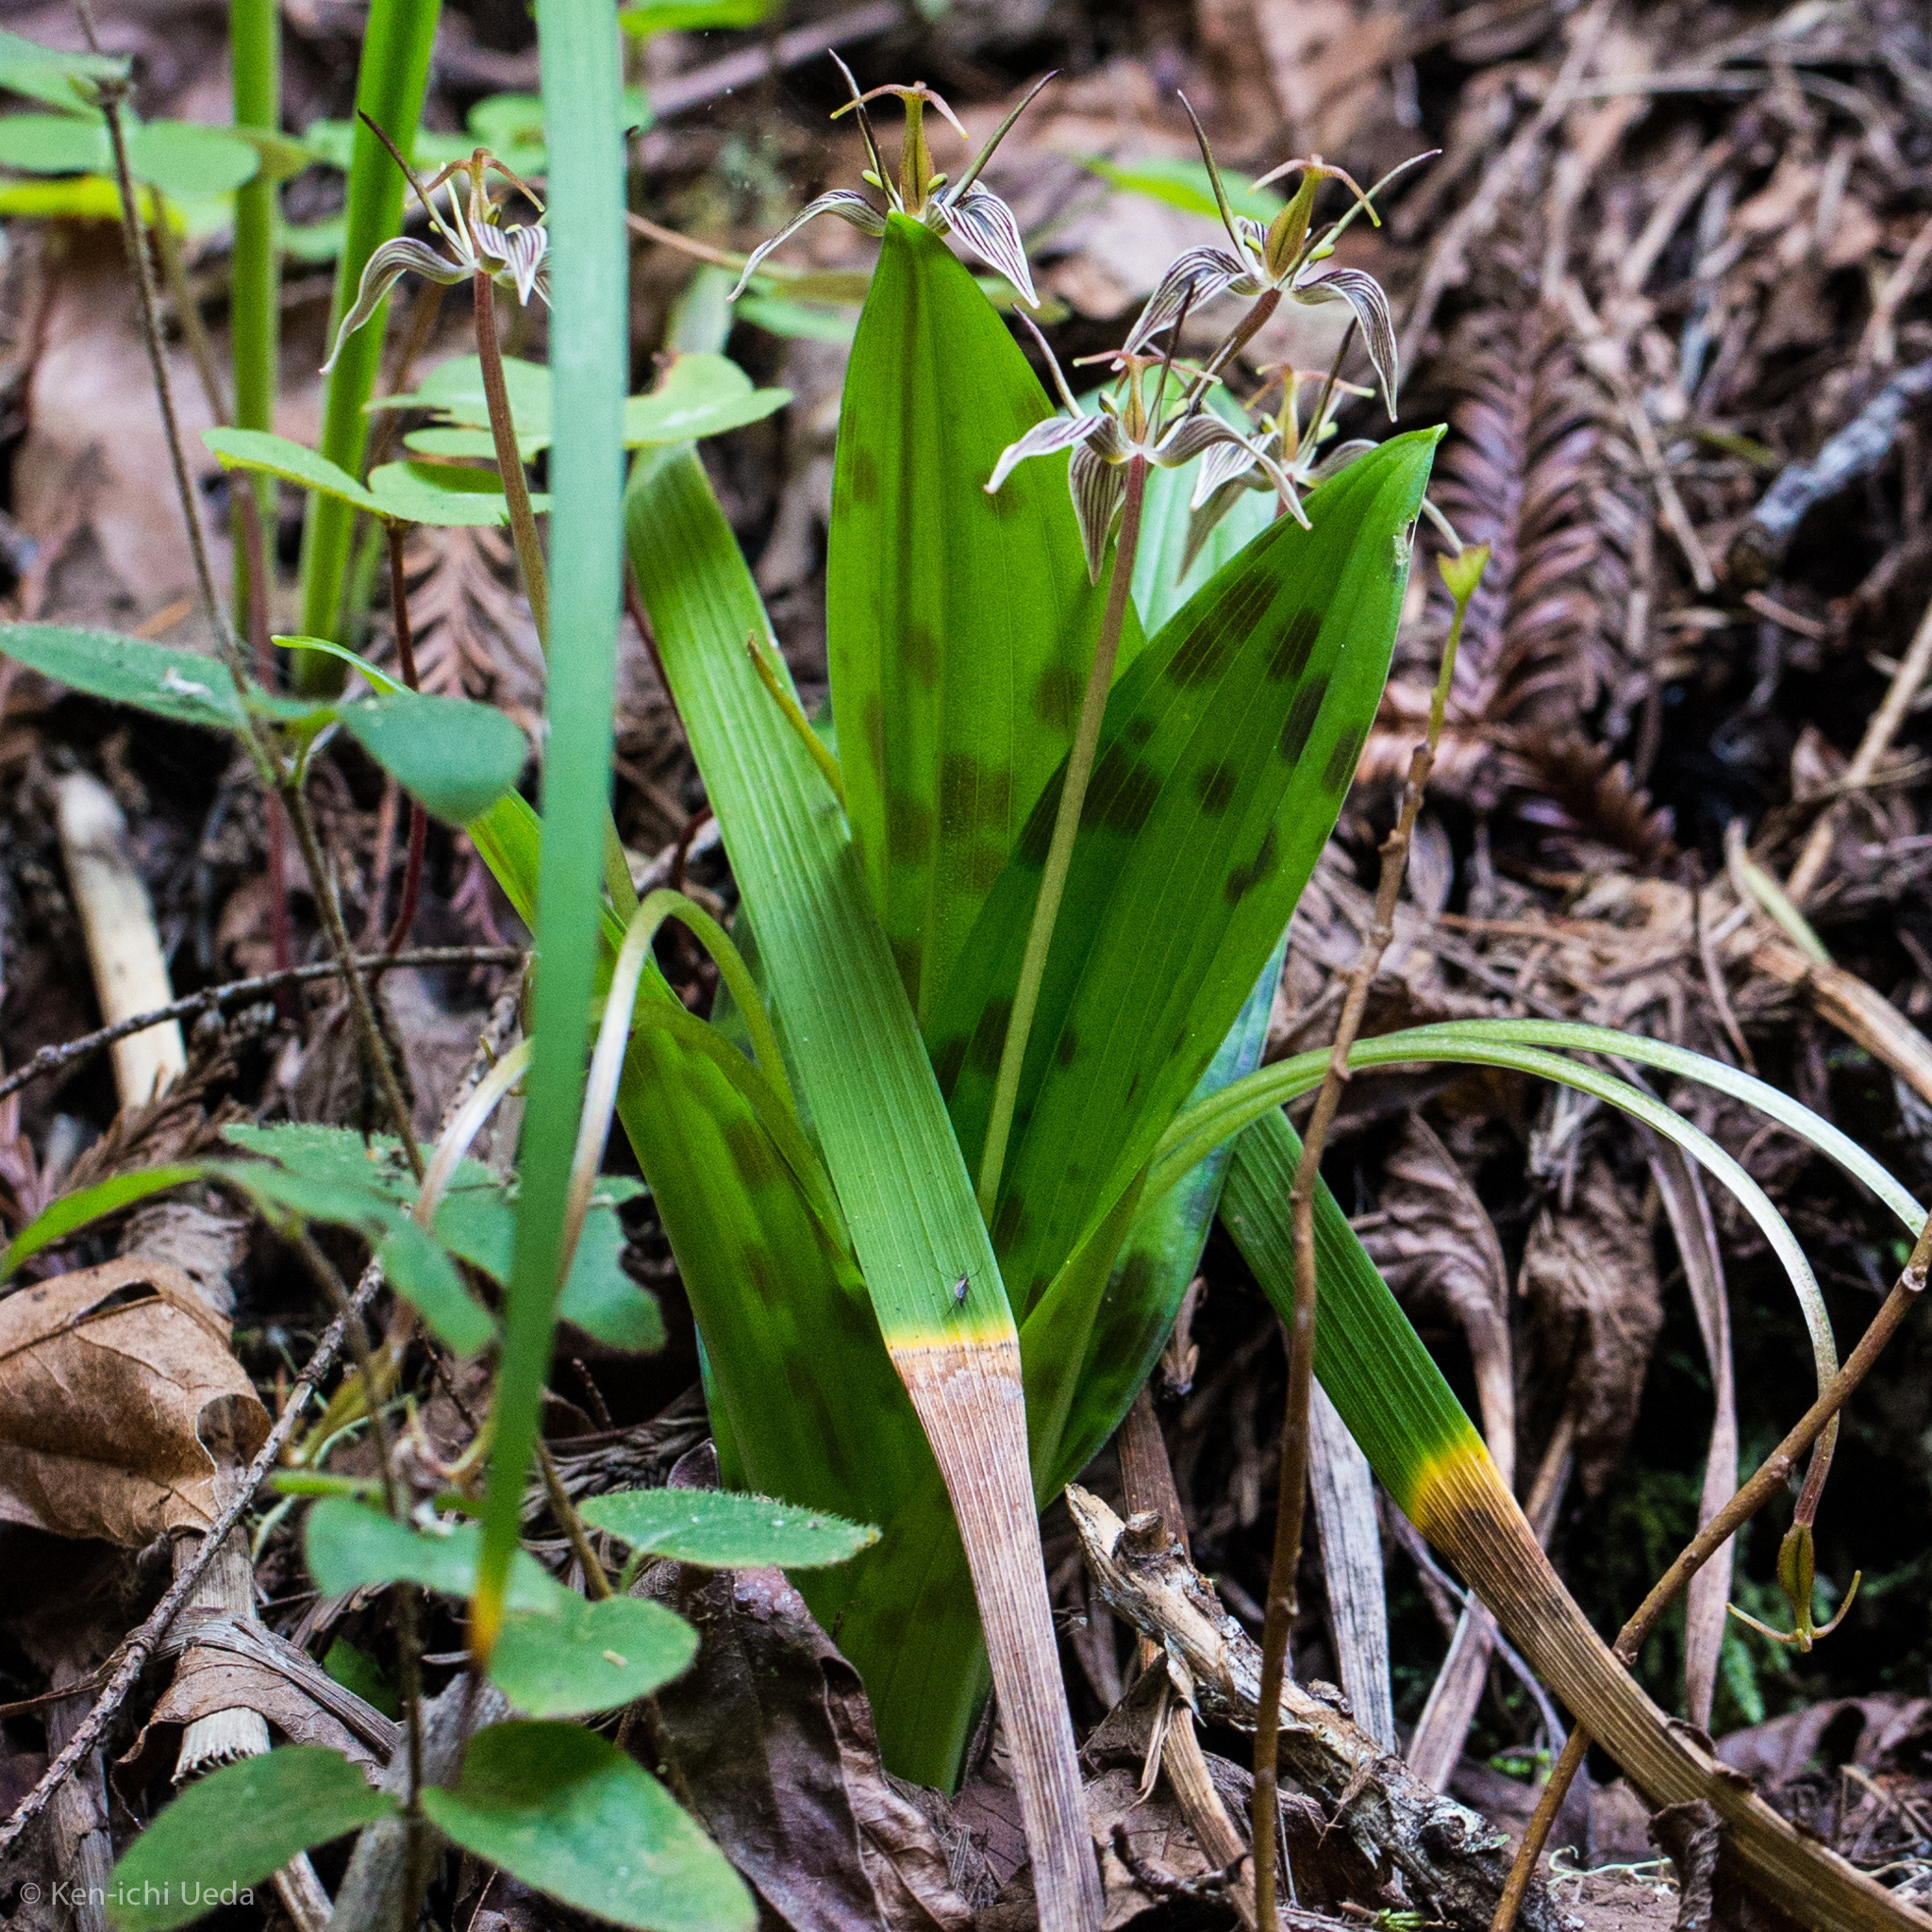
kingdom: Plantae
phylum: Tracheophyta
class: Liliopsida
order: Liliales
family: Liliaceae
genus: Scoliopus
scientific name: Scoliopus bigelovii
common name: Foetid adder's-tongue
